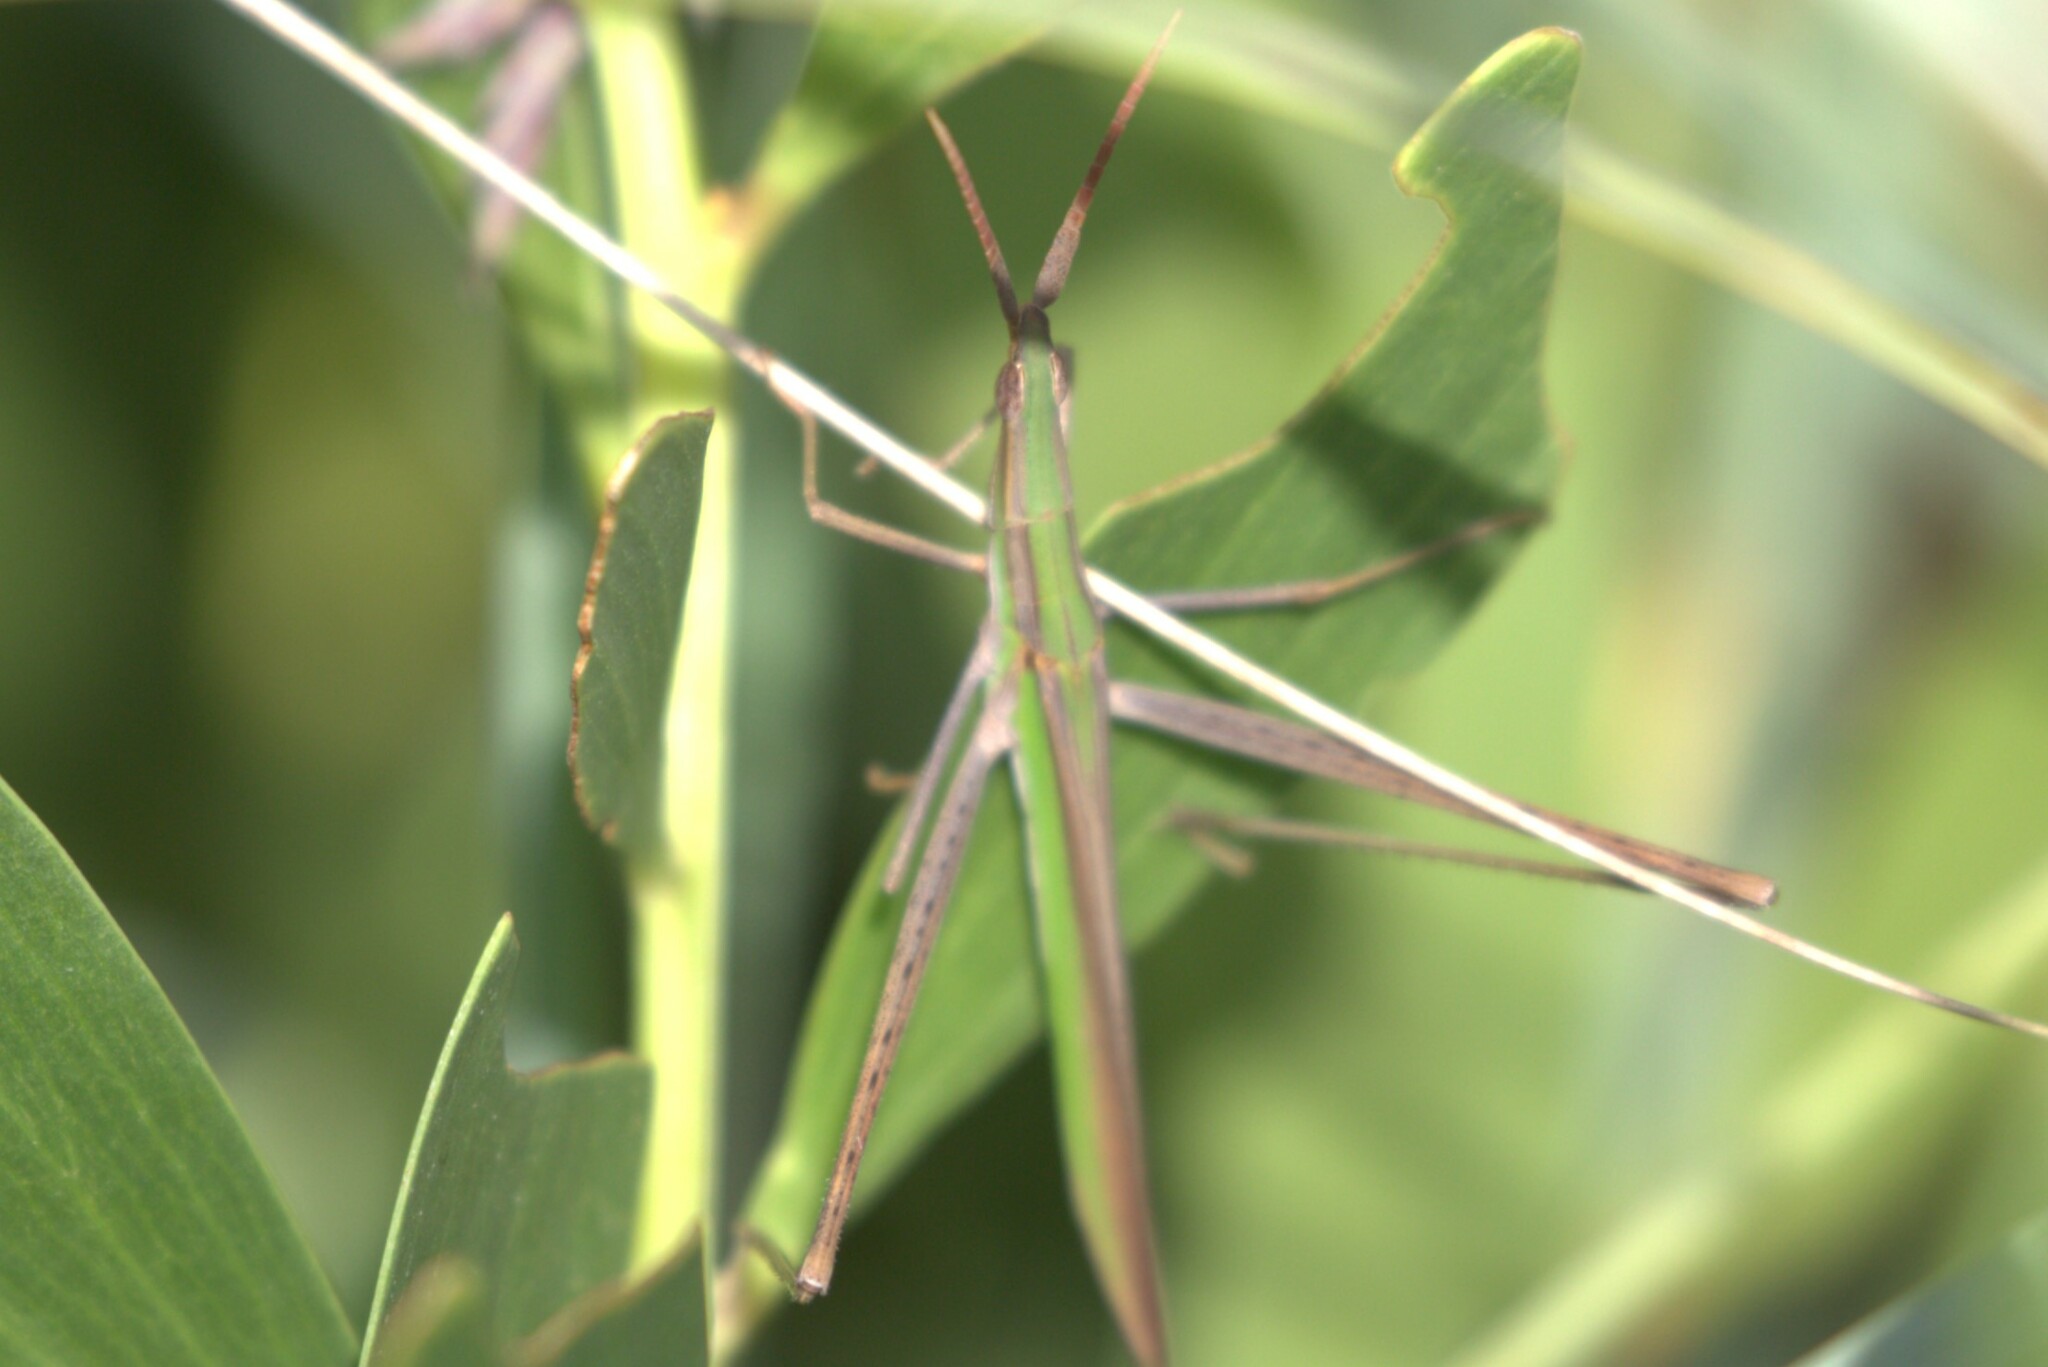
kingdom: Animalia
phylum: Arthropoda
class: Insecta
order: Orthoptera
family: Acrididae
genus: Acrida
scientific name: Acrida conica
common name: Giant green slantface
